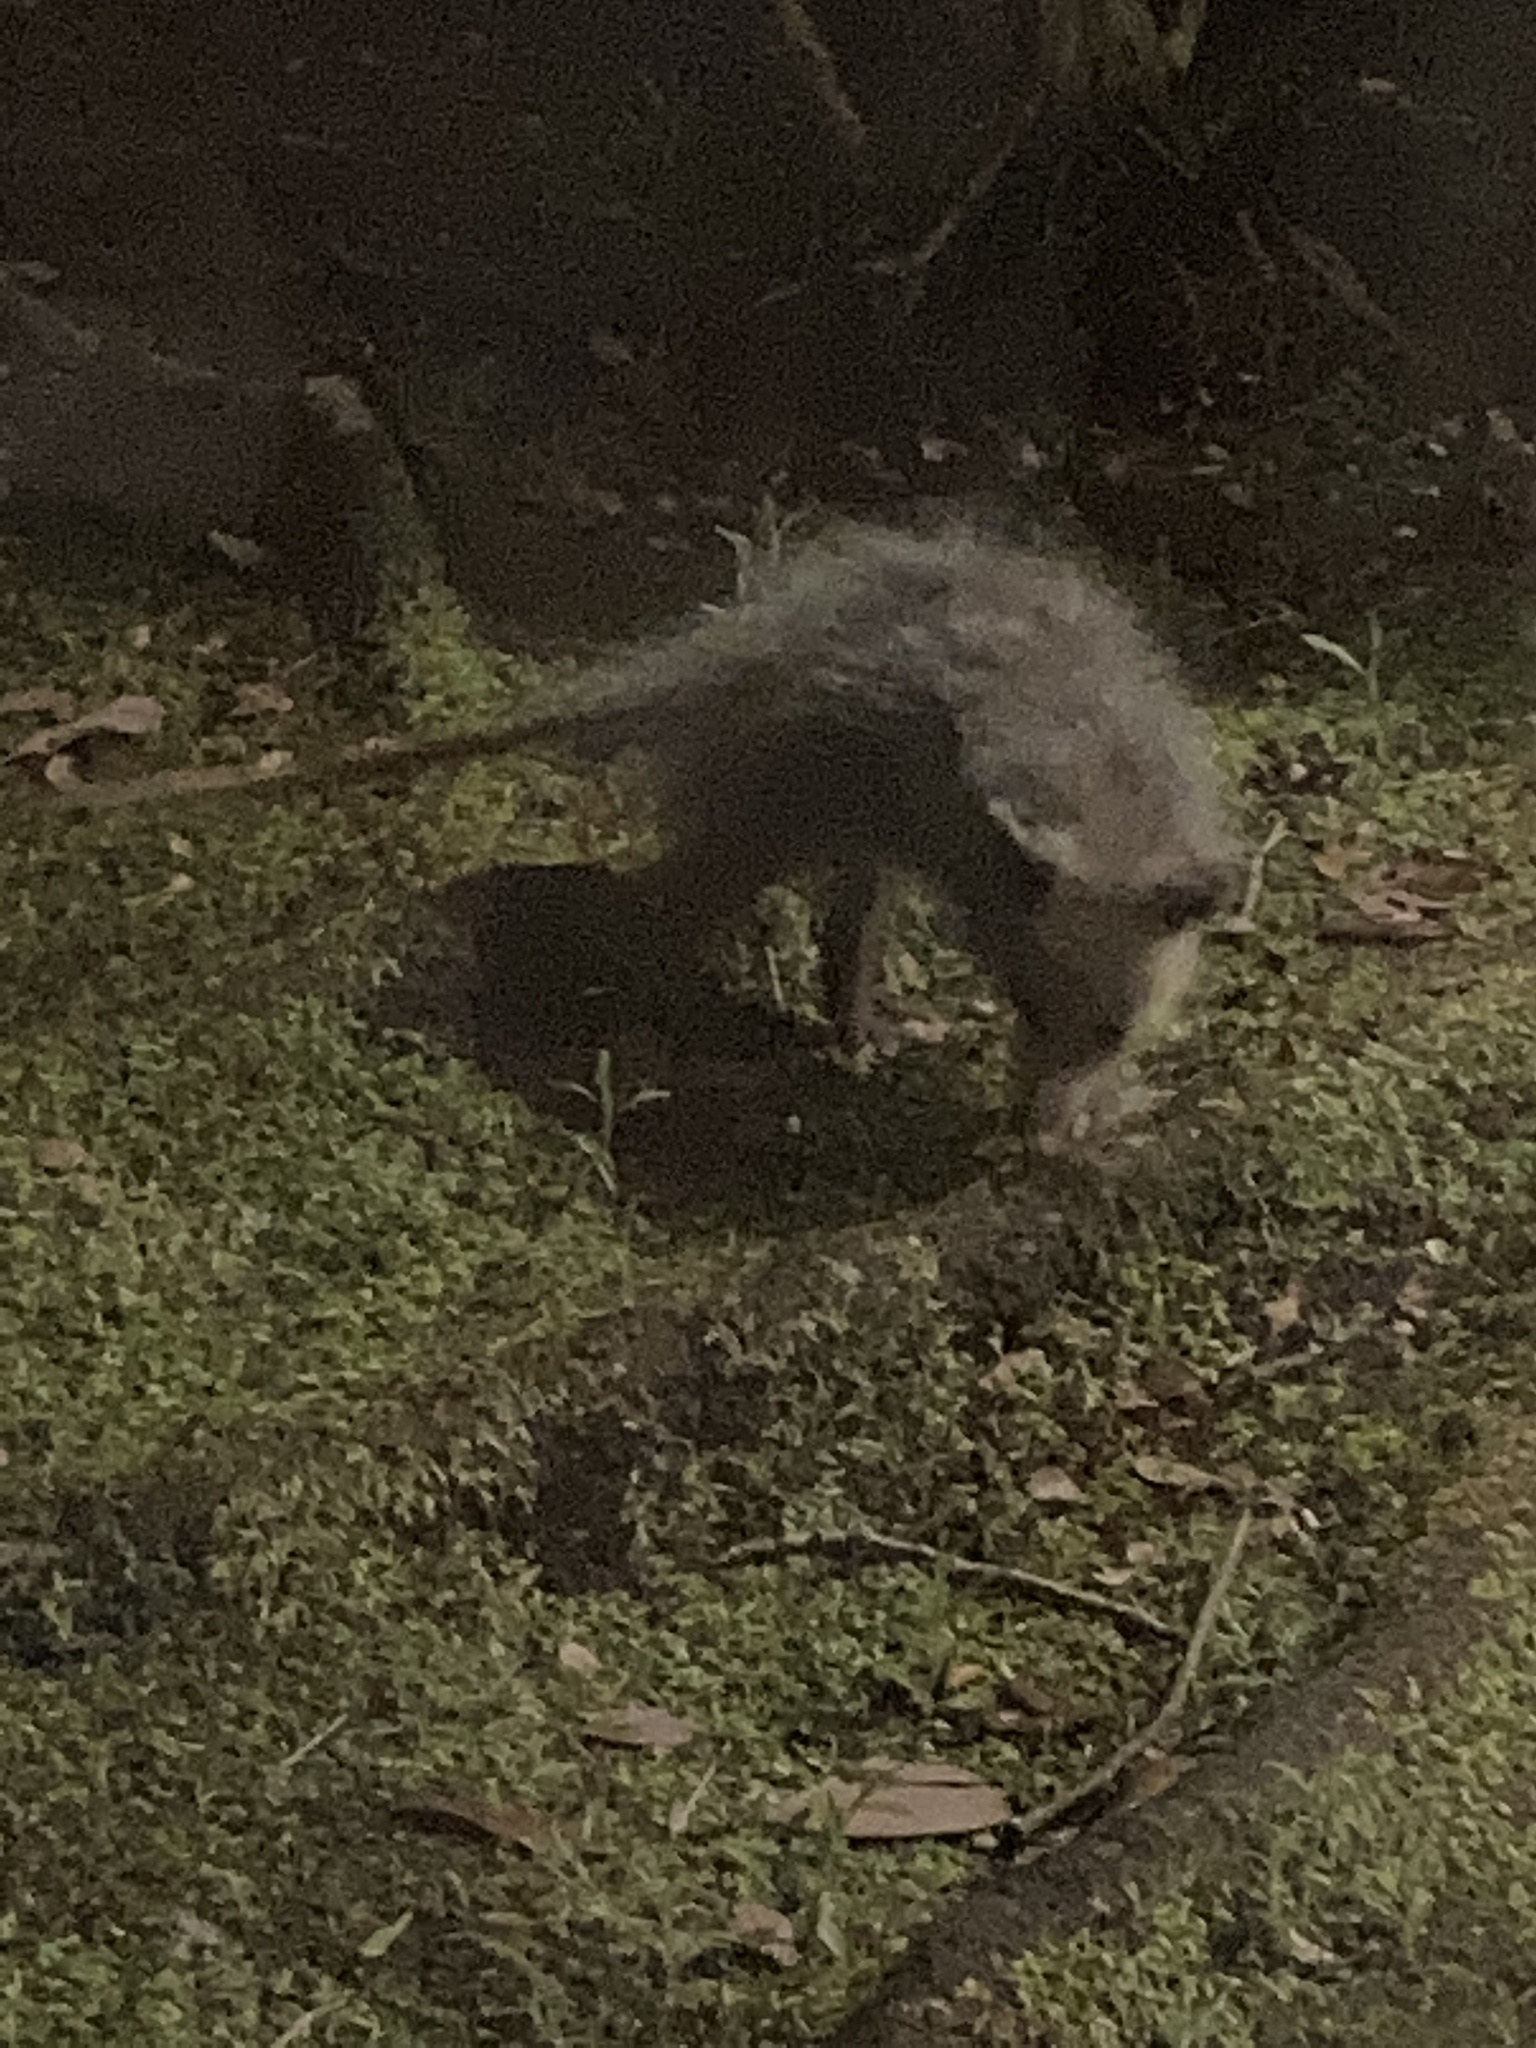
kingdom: Animalia
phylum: Chordata
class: Mammalia
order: Didelphimorphia
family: Didelphidae
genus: Didelphis
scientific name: Didelphis virginiana
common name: Virginia opossum
